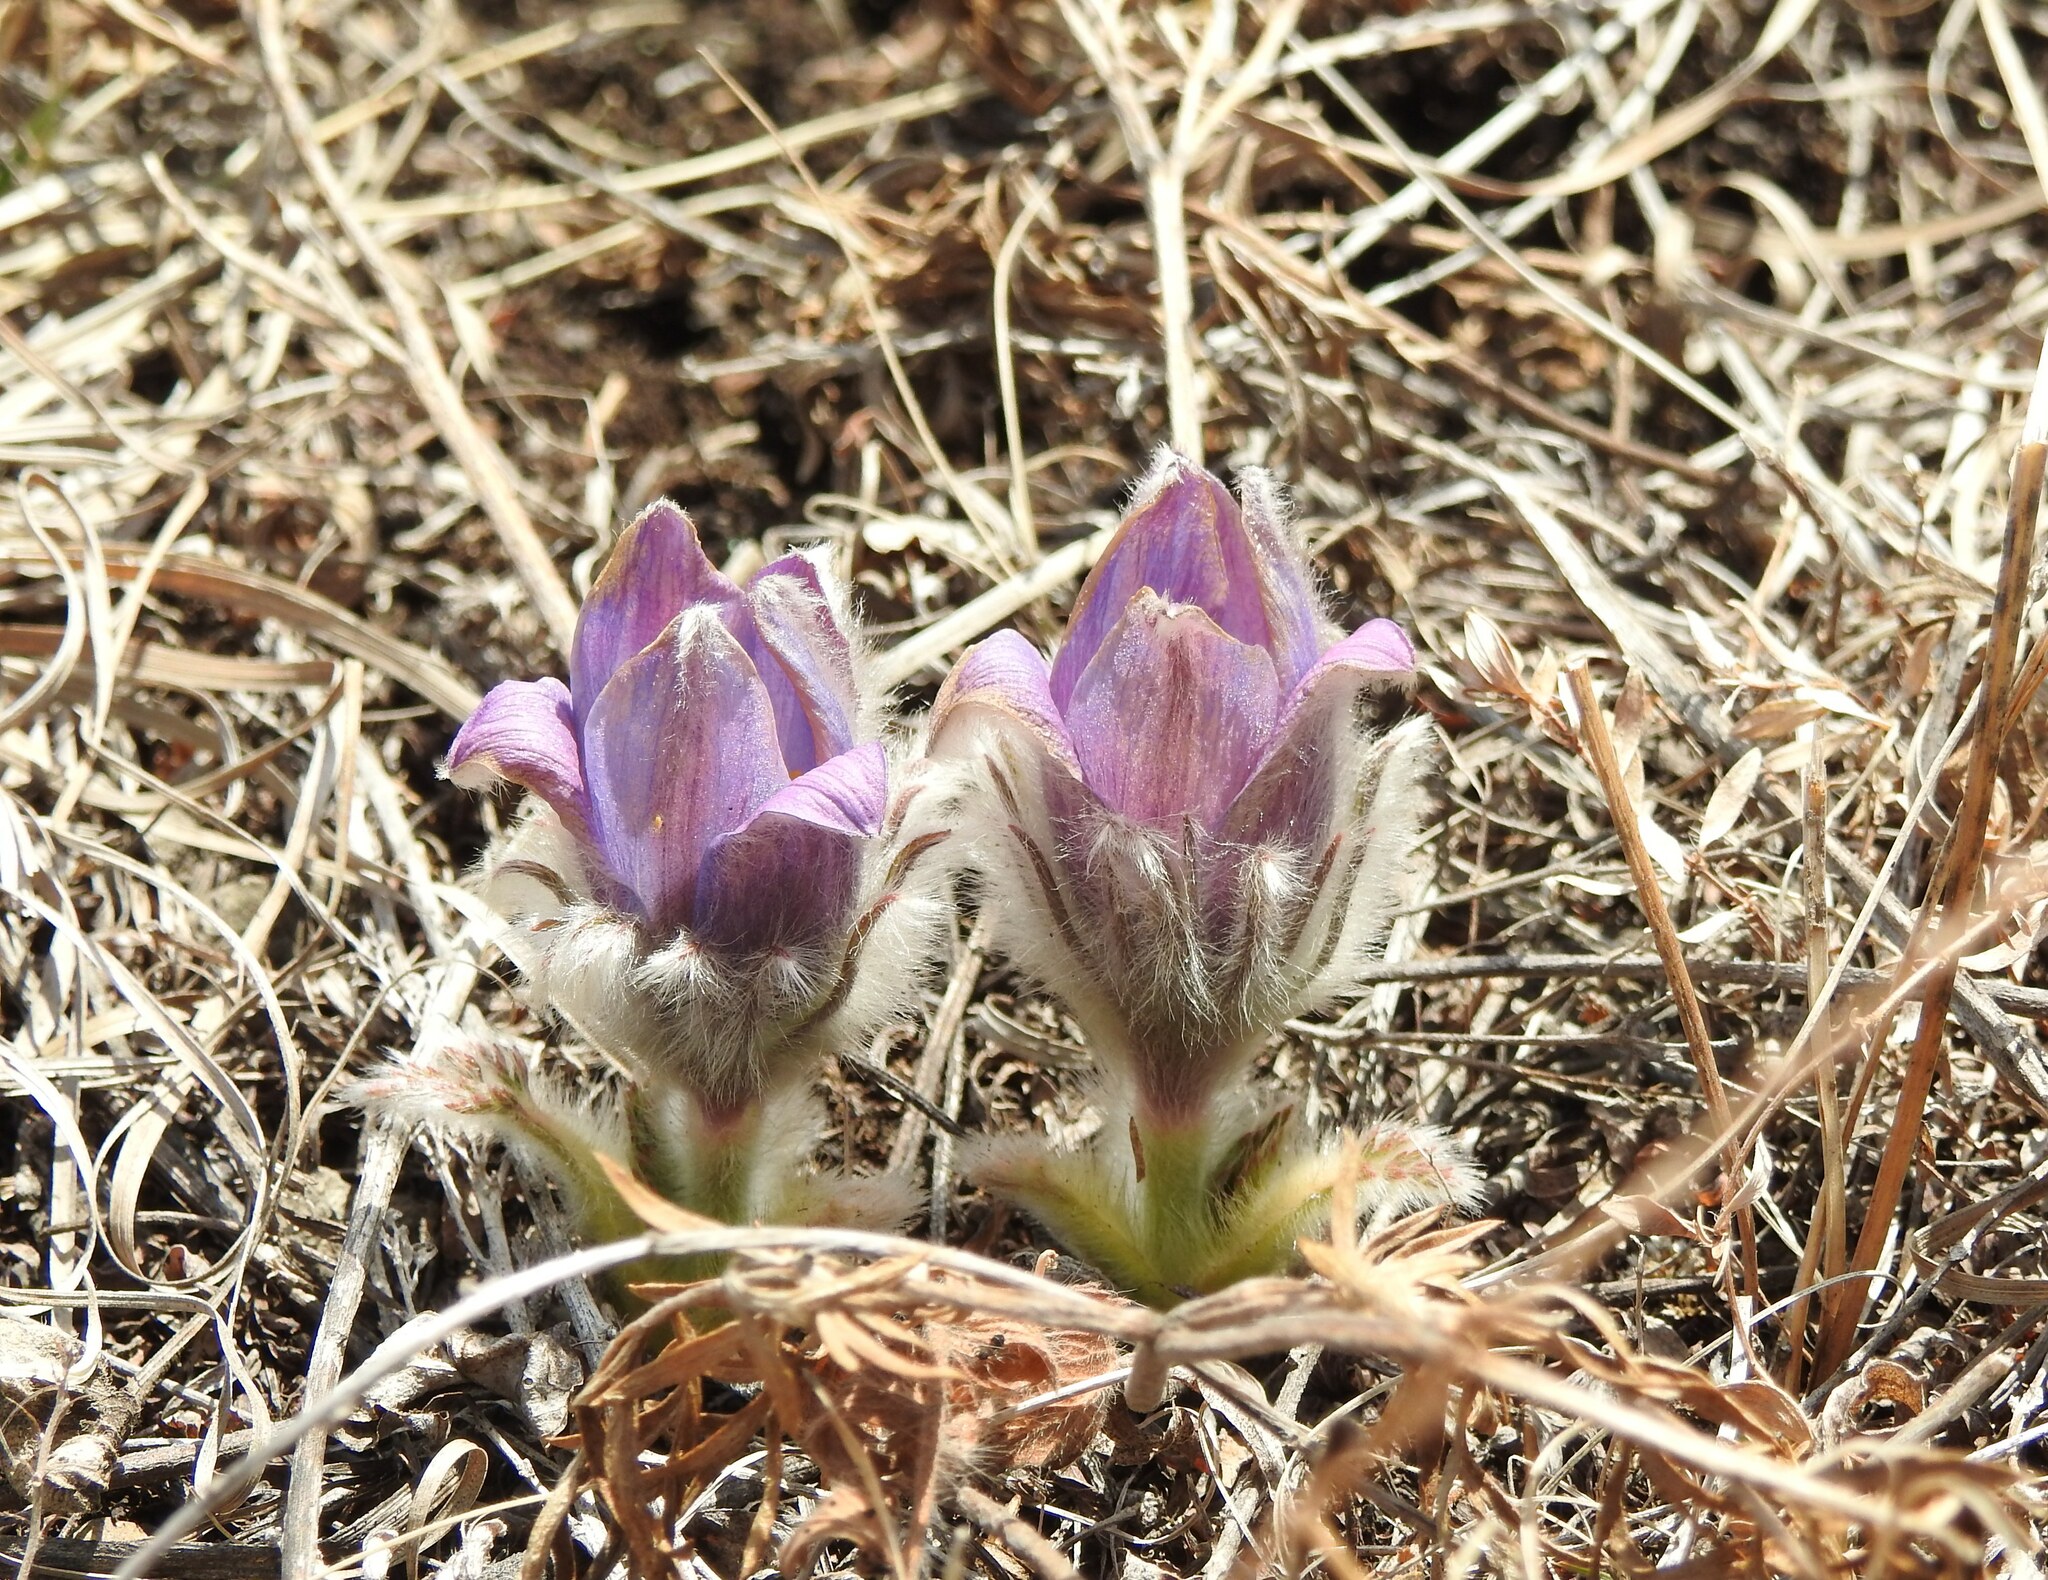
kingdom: Plantae
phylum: Tracheophyta
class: Magnoliopsida
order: Ranunculales
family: Ranunculaceae
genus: Pulsatilla
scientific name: Pulsatilla turczaninovii
